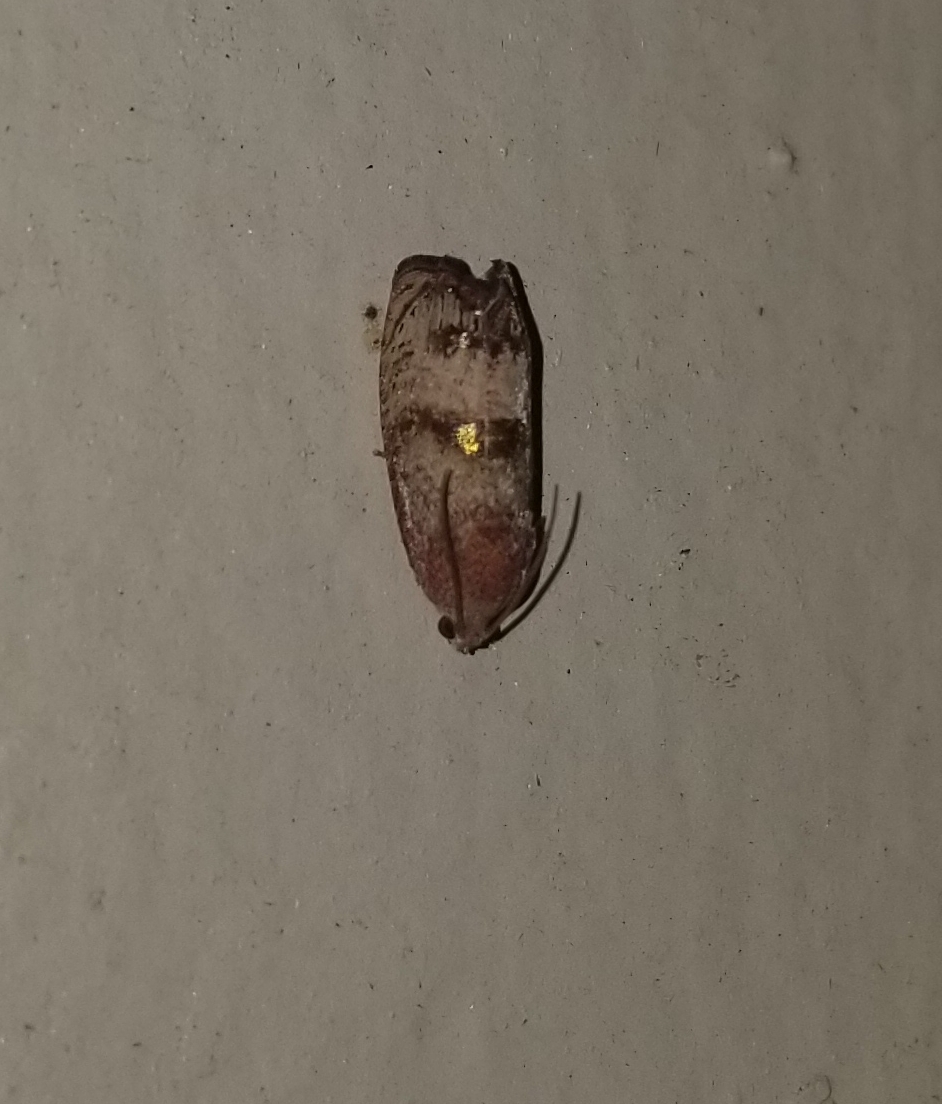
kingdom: Animalia
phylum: Arthropoda
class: Insecta
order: Lepidoptera
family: Tortricidae
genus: Cydia
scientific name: Cydia latiferreana
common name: Filbertworm moth
